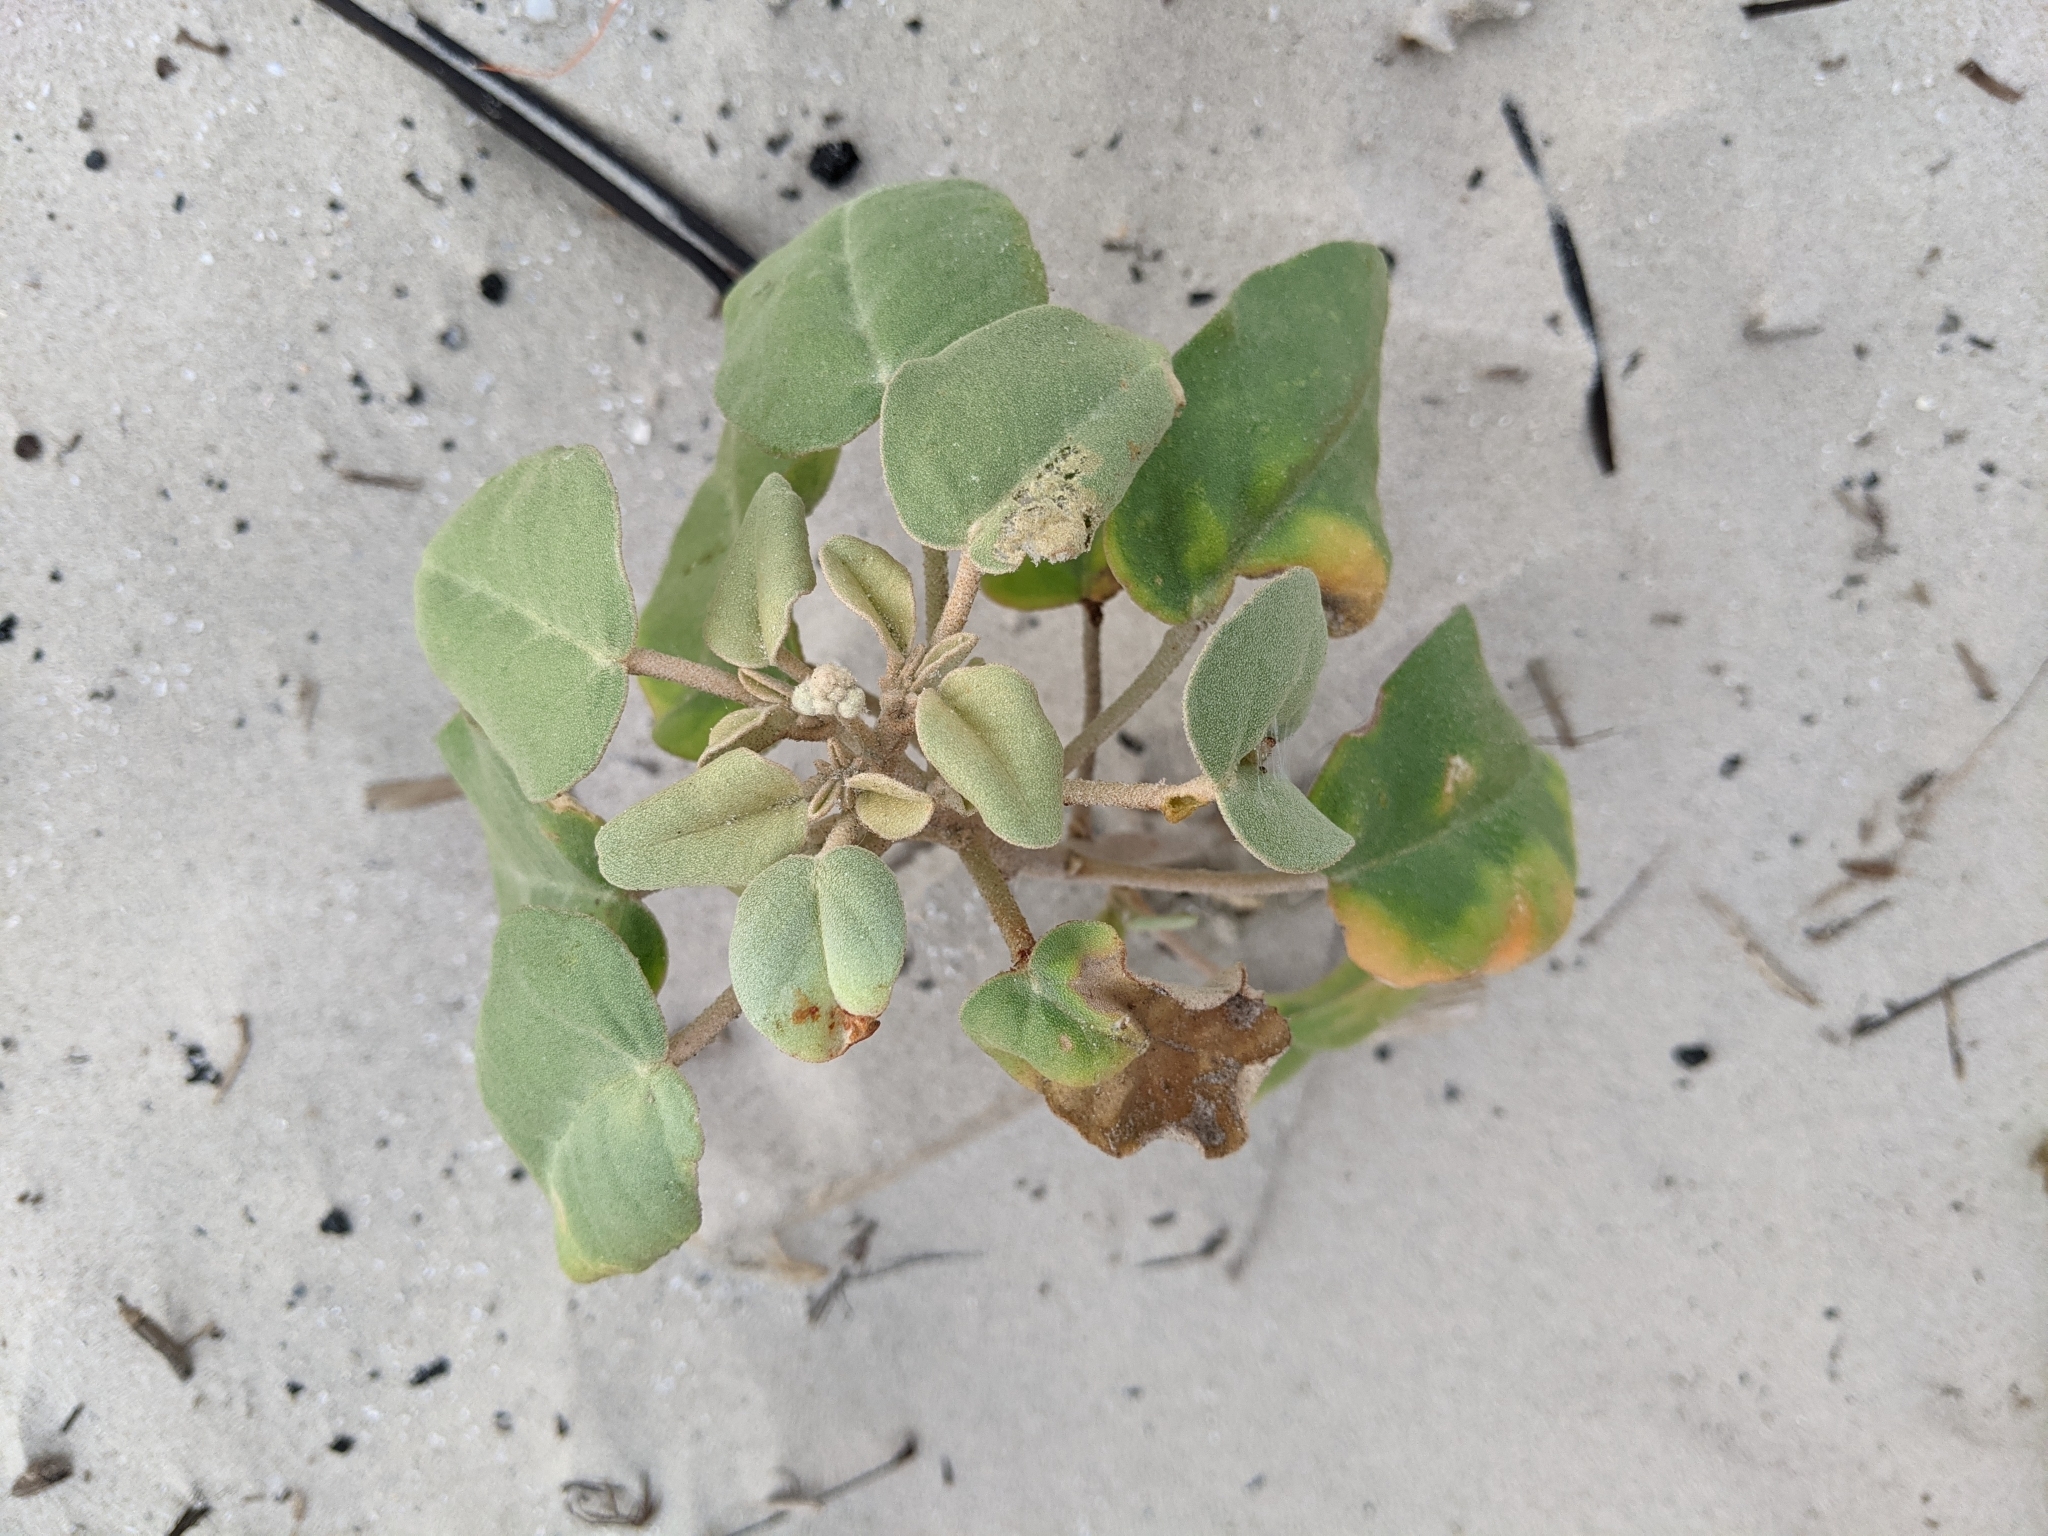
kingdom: Plantae
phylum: Tracheophyta
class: Magnoliopsida
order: Malpighiales
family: Euphorbiaceae
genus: Croton
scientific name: Croton punctatus
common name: Beach-tea
